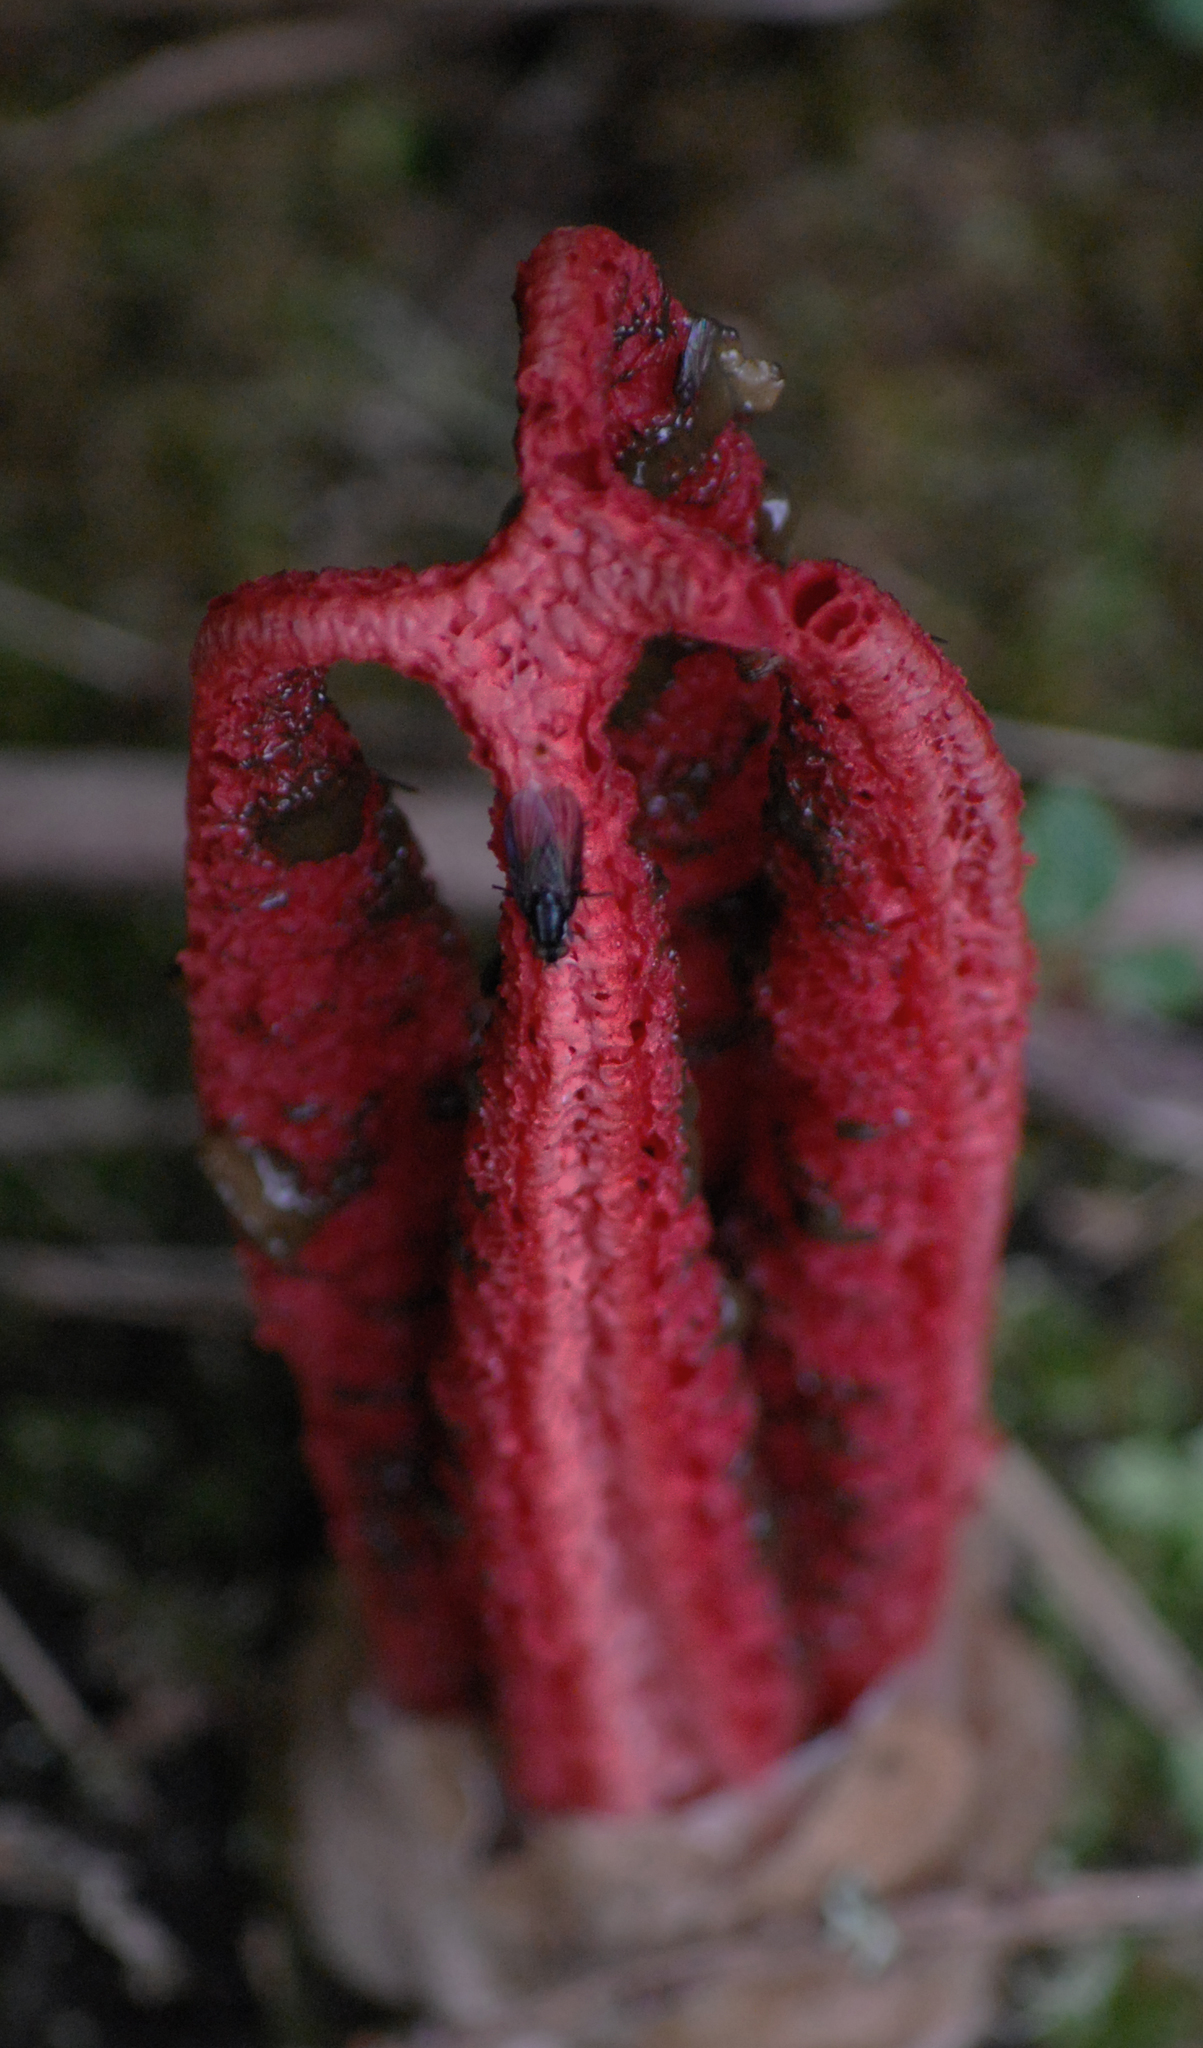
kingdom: Fungi
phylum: Basidiomycota
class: Agaricomycetes
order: Phallales
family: Phallaceae
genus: Clathrus
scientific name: Clathrus archeri
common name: Devil's fingers
